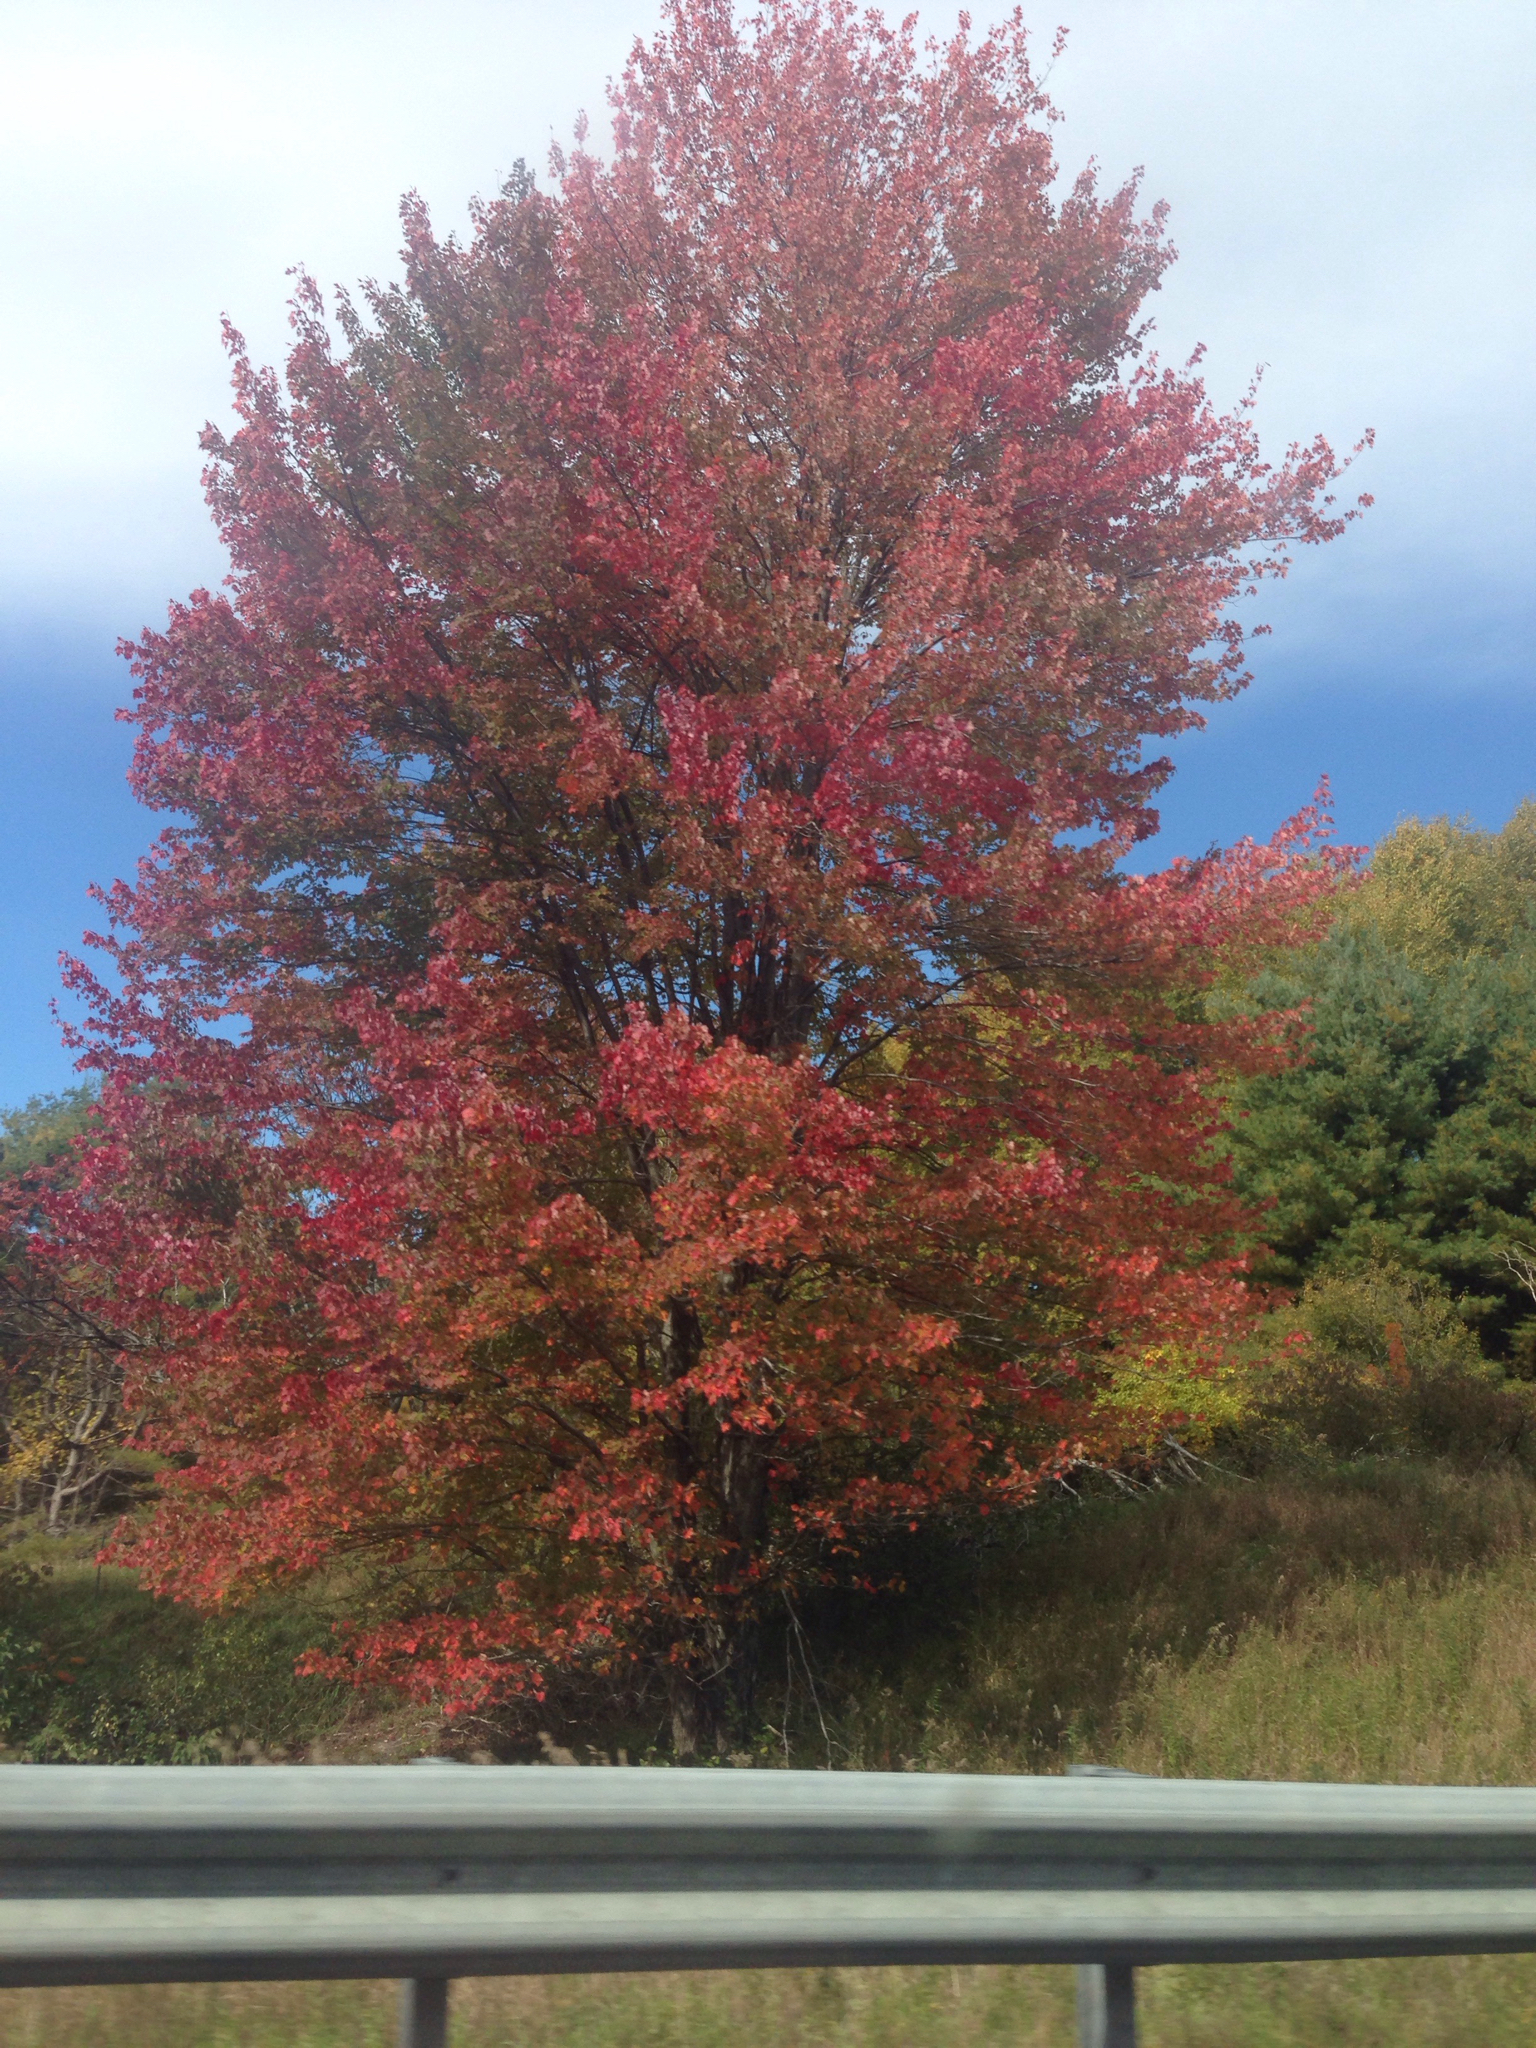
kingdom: Plantae
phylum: Tracheophyta
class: Magnoliopsida
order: Sapindales
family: Sapindaceae
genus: Acer
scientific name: Acer rubrum
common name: Red maple
